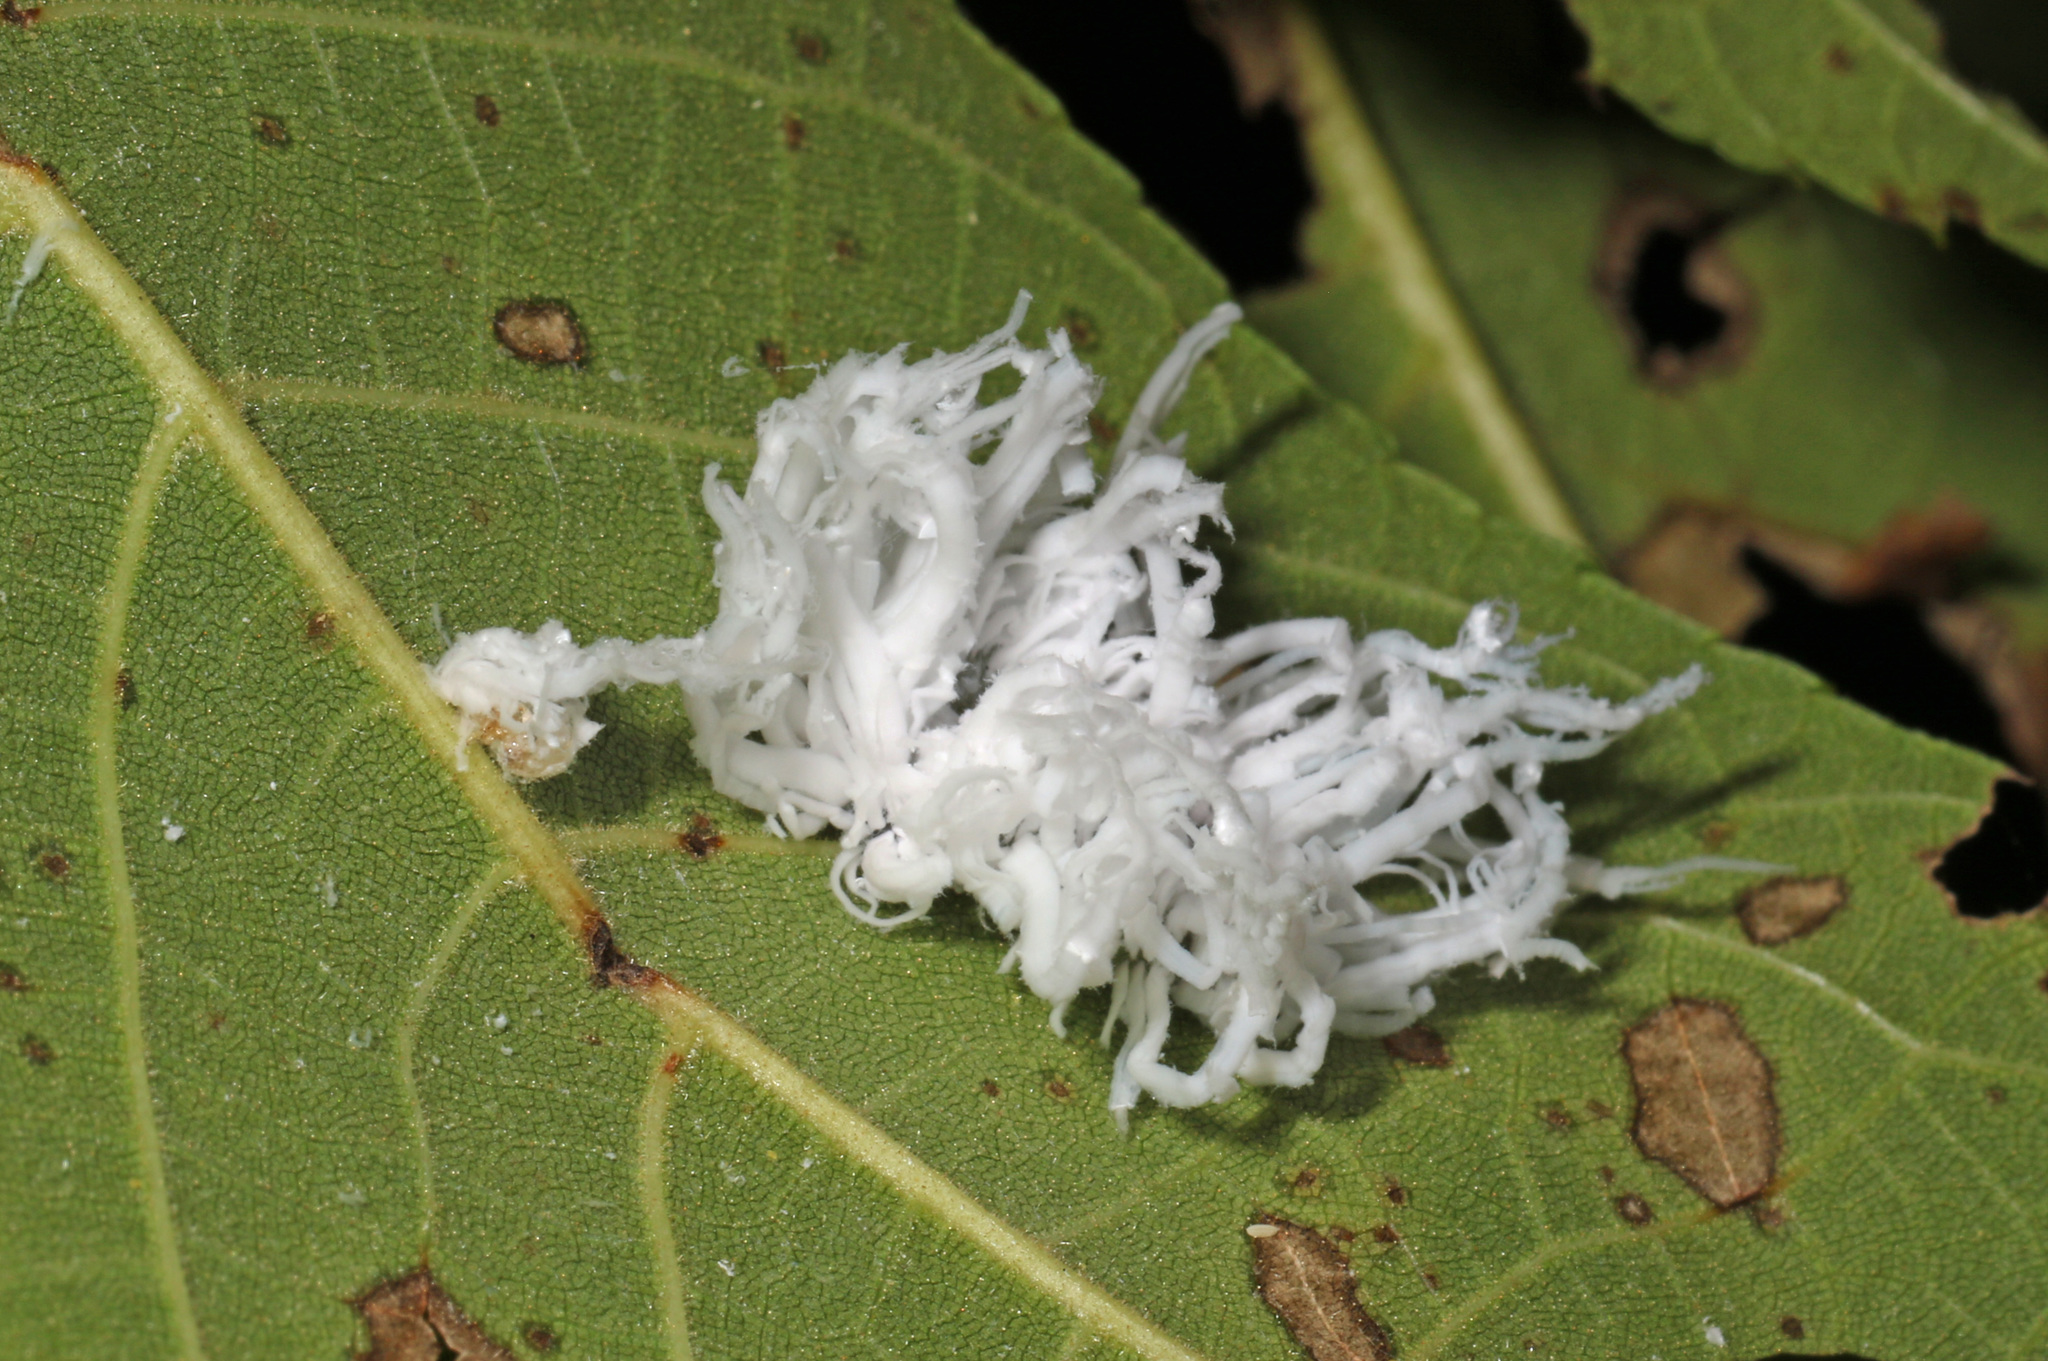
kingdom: Animalia
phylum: Arthropoda
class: Insecta
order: Hymenoptera
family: Tenthredinidae
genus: Eriocampa
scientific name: Eriocampa juglandis
